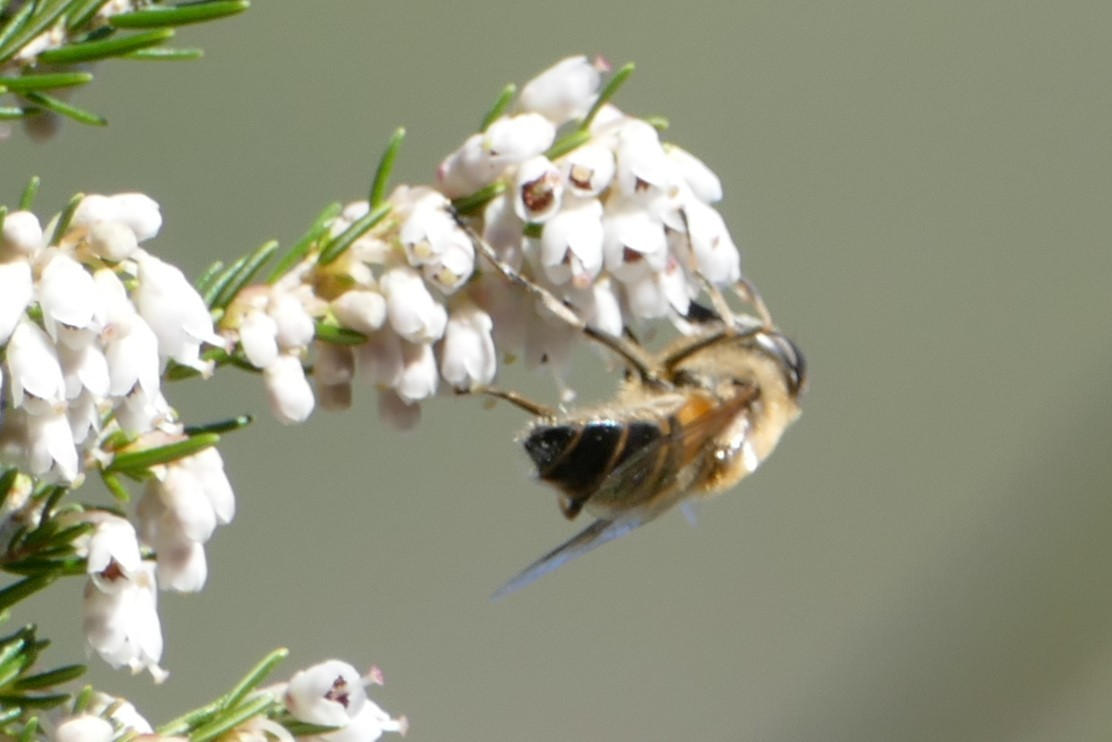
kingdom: Animalia
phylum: Arthropoda
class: Insecta
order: Diptera
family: Syrphidae
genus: Eristalis
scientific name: Eristalis
